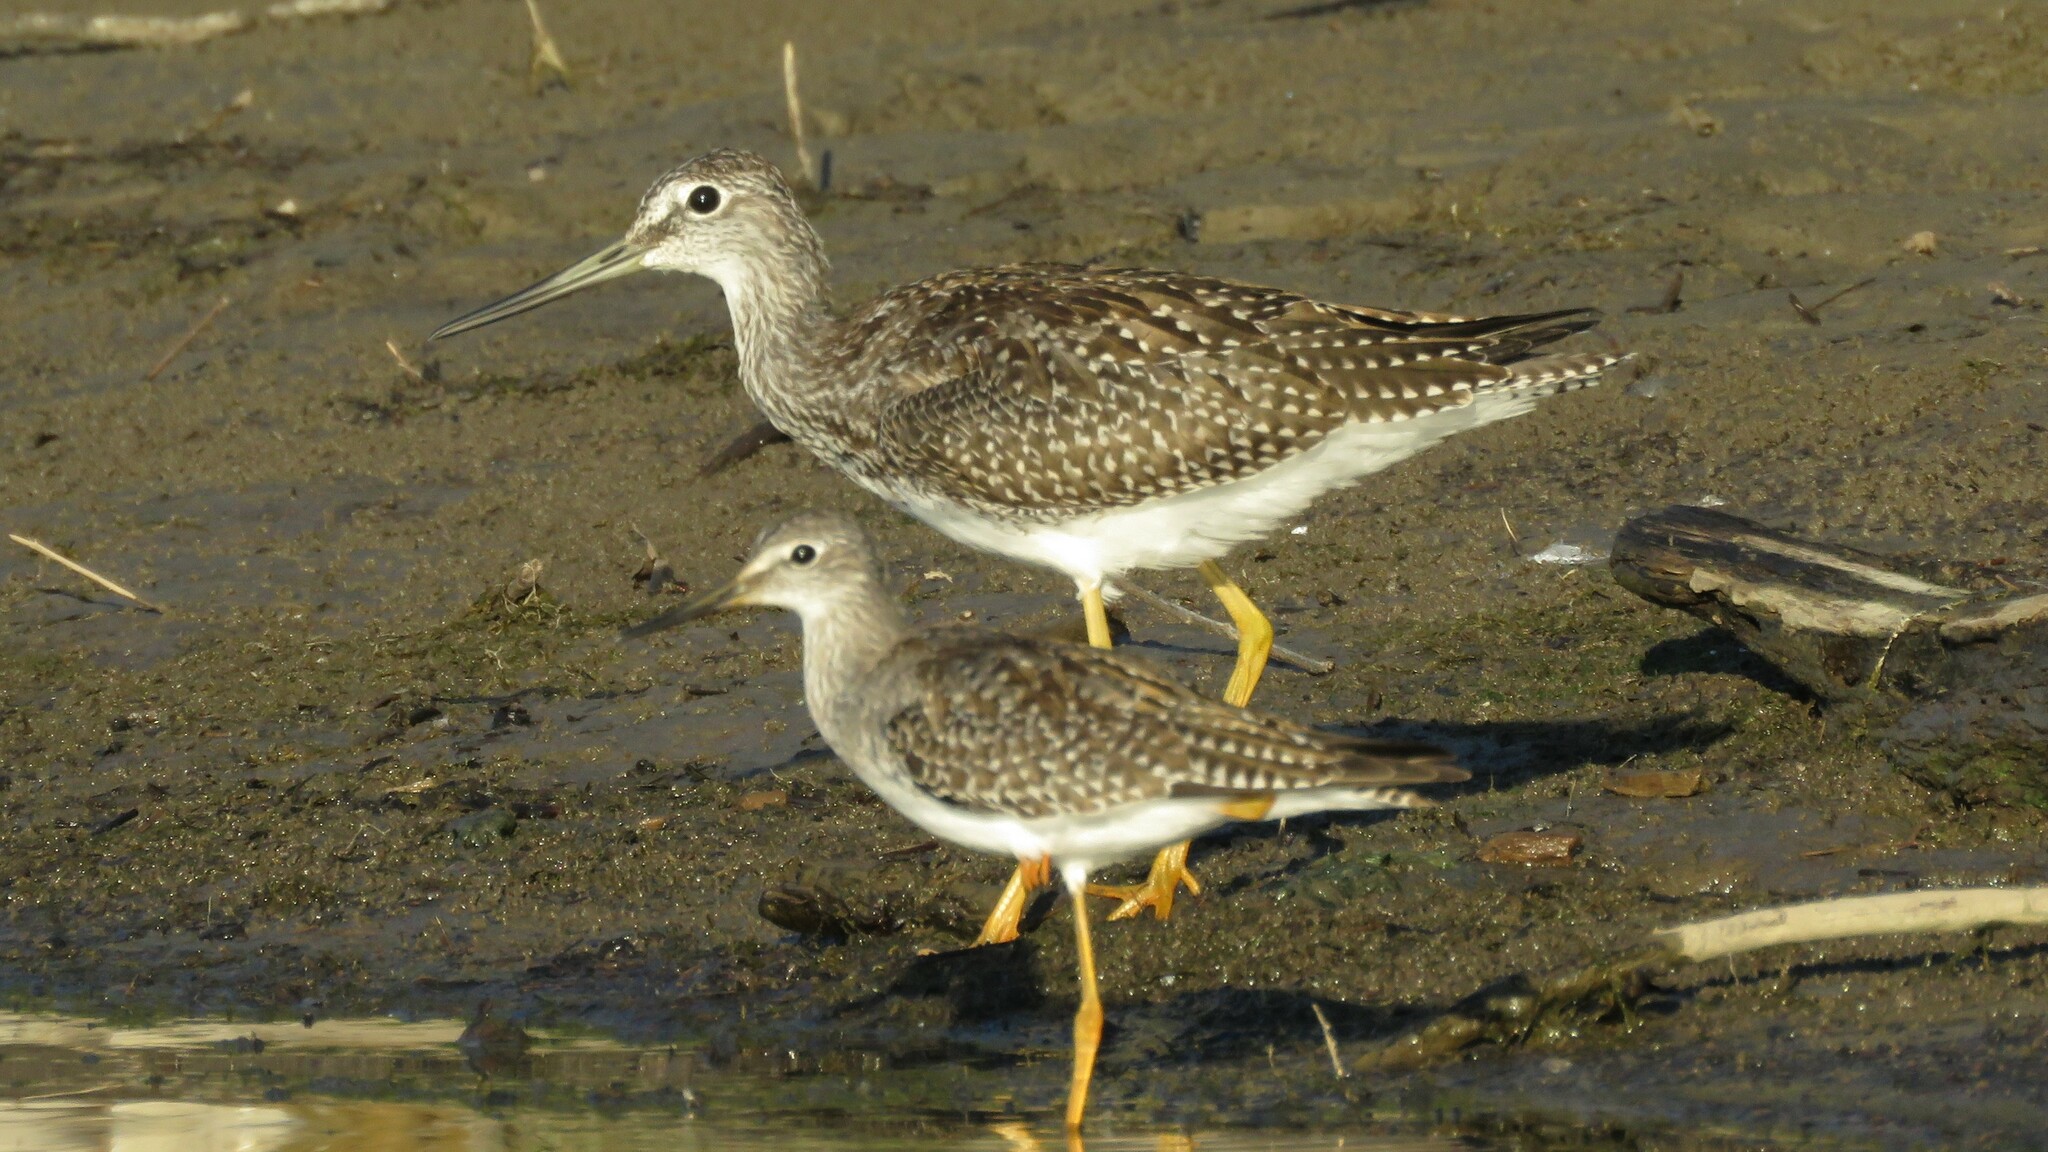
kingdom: Animalia
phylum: Chordata
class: Aves
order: Charadriiformes
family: Scolopacidae
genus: Tringa
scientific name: Tringa flavipes
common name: Lesser yellowlegs
